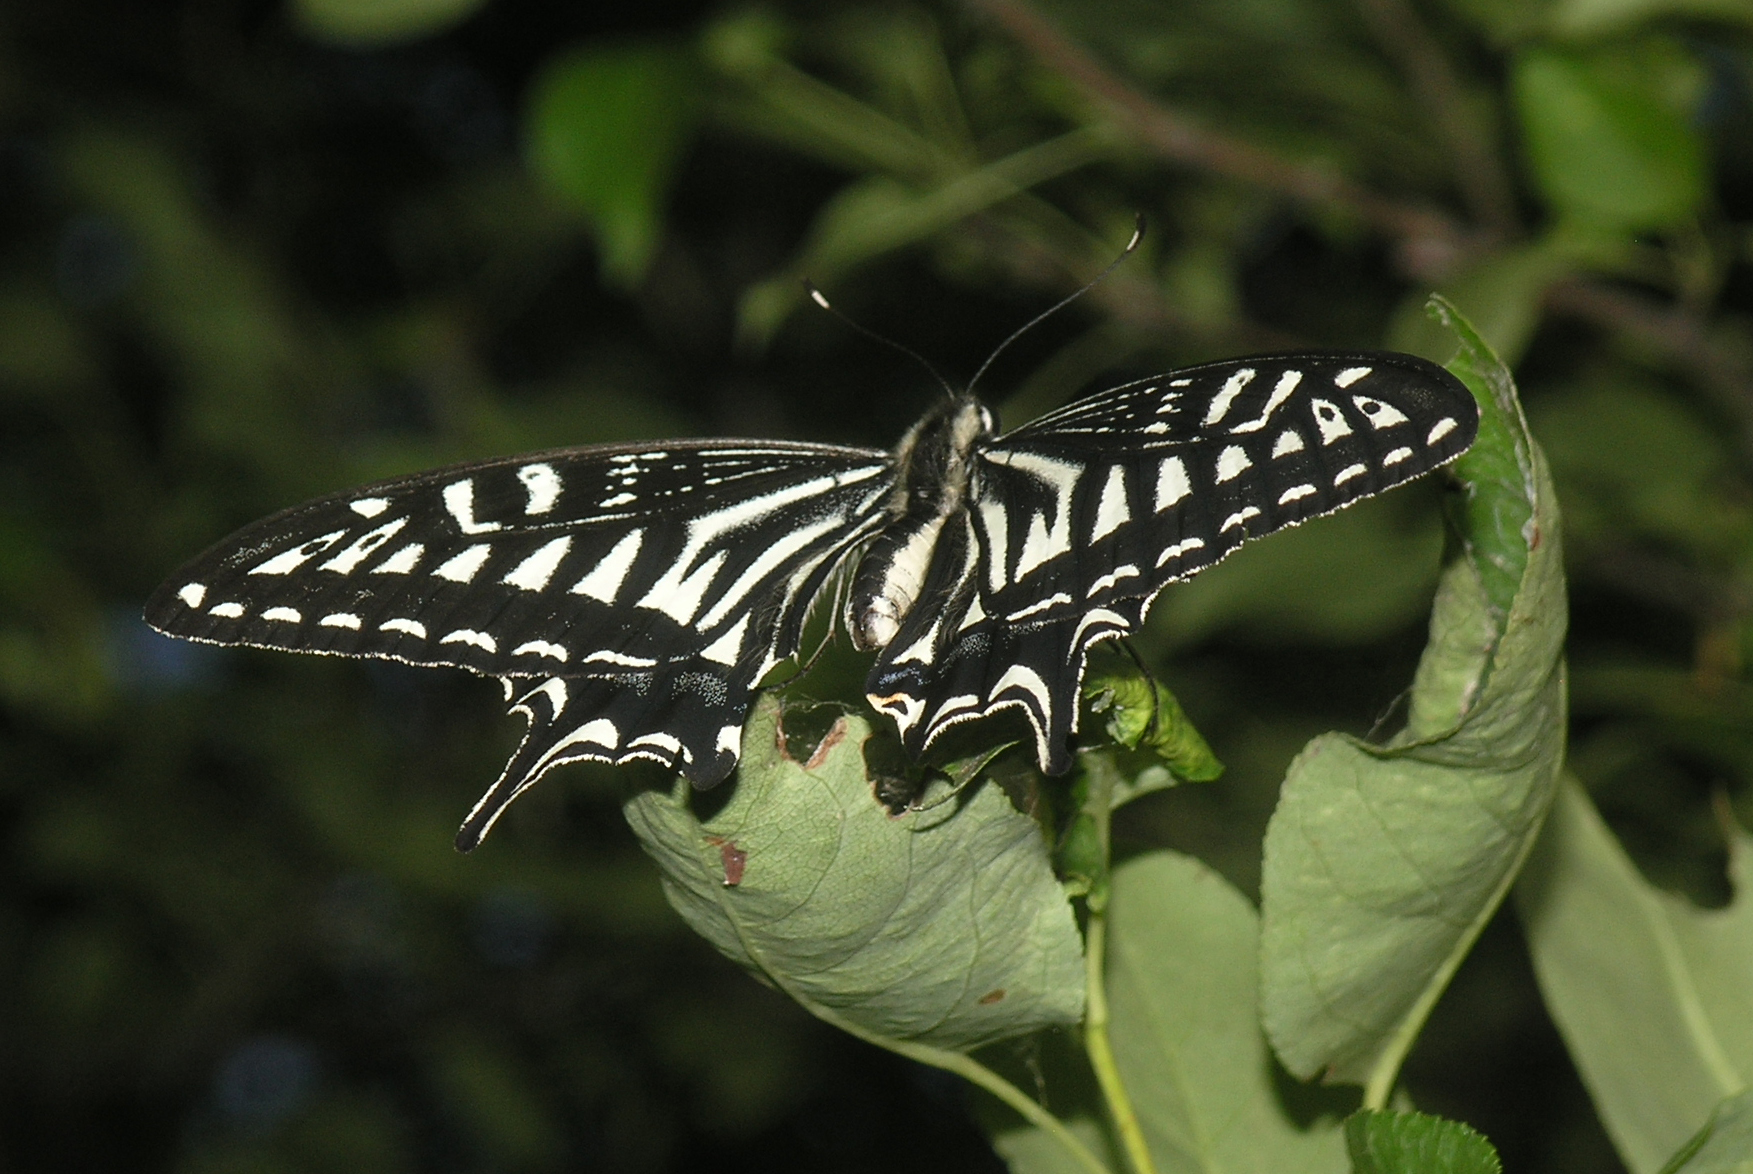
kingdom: Animalia
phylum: Arthropoda
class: Insecta
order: Lepidoptera
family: Papilionidae
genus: Papilio
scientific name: Papilio xuthus
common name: Asian swallowtail
